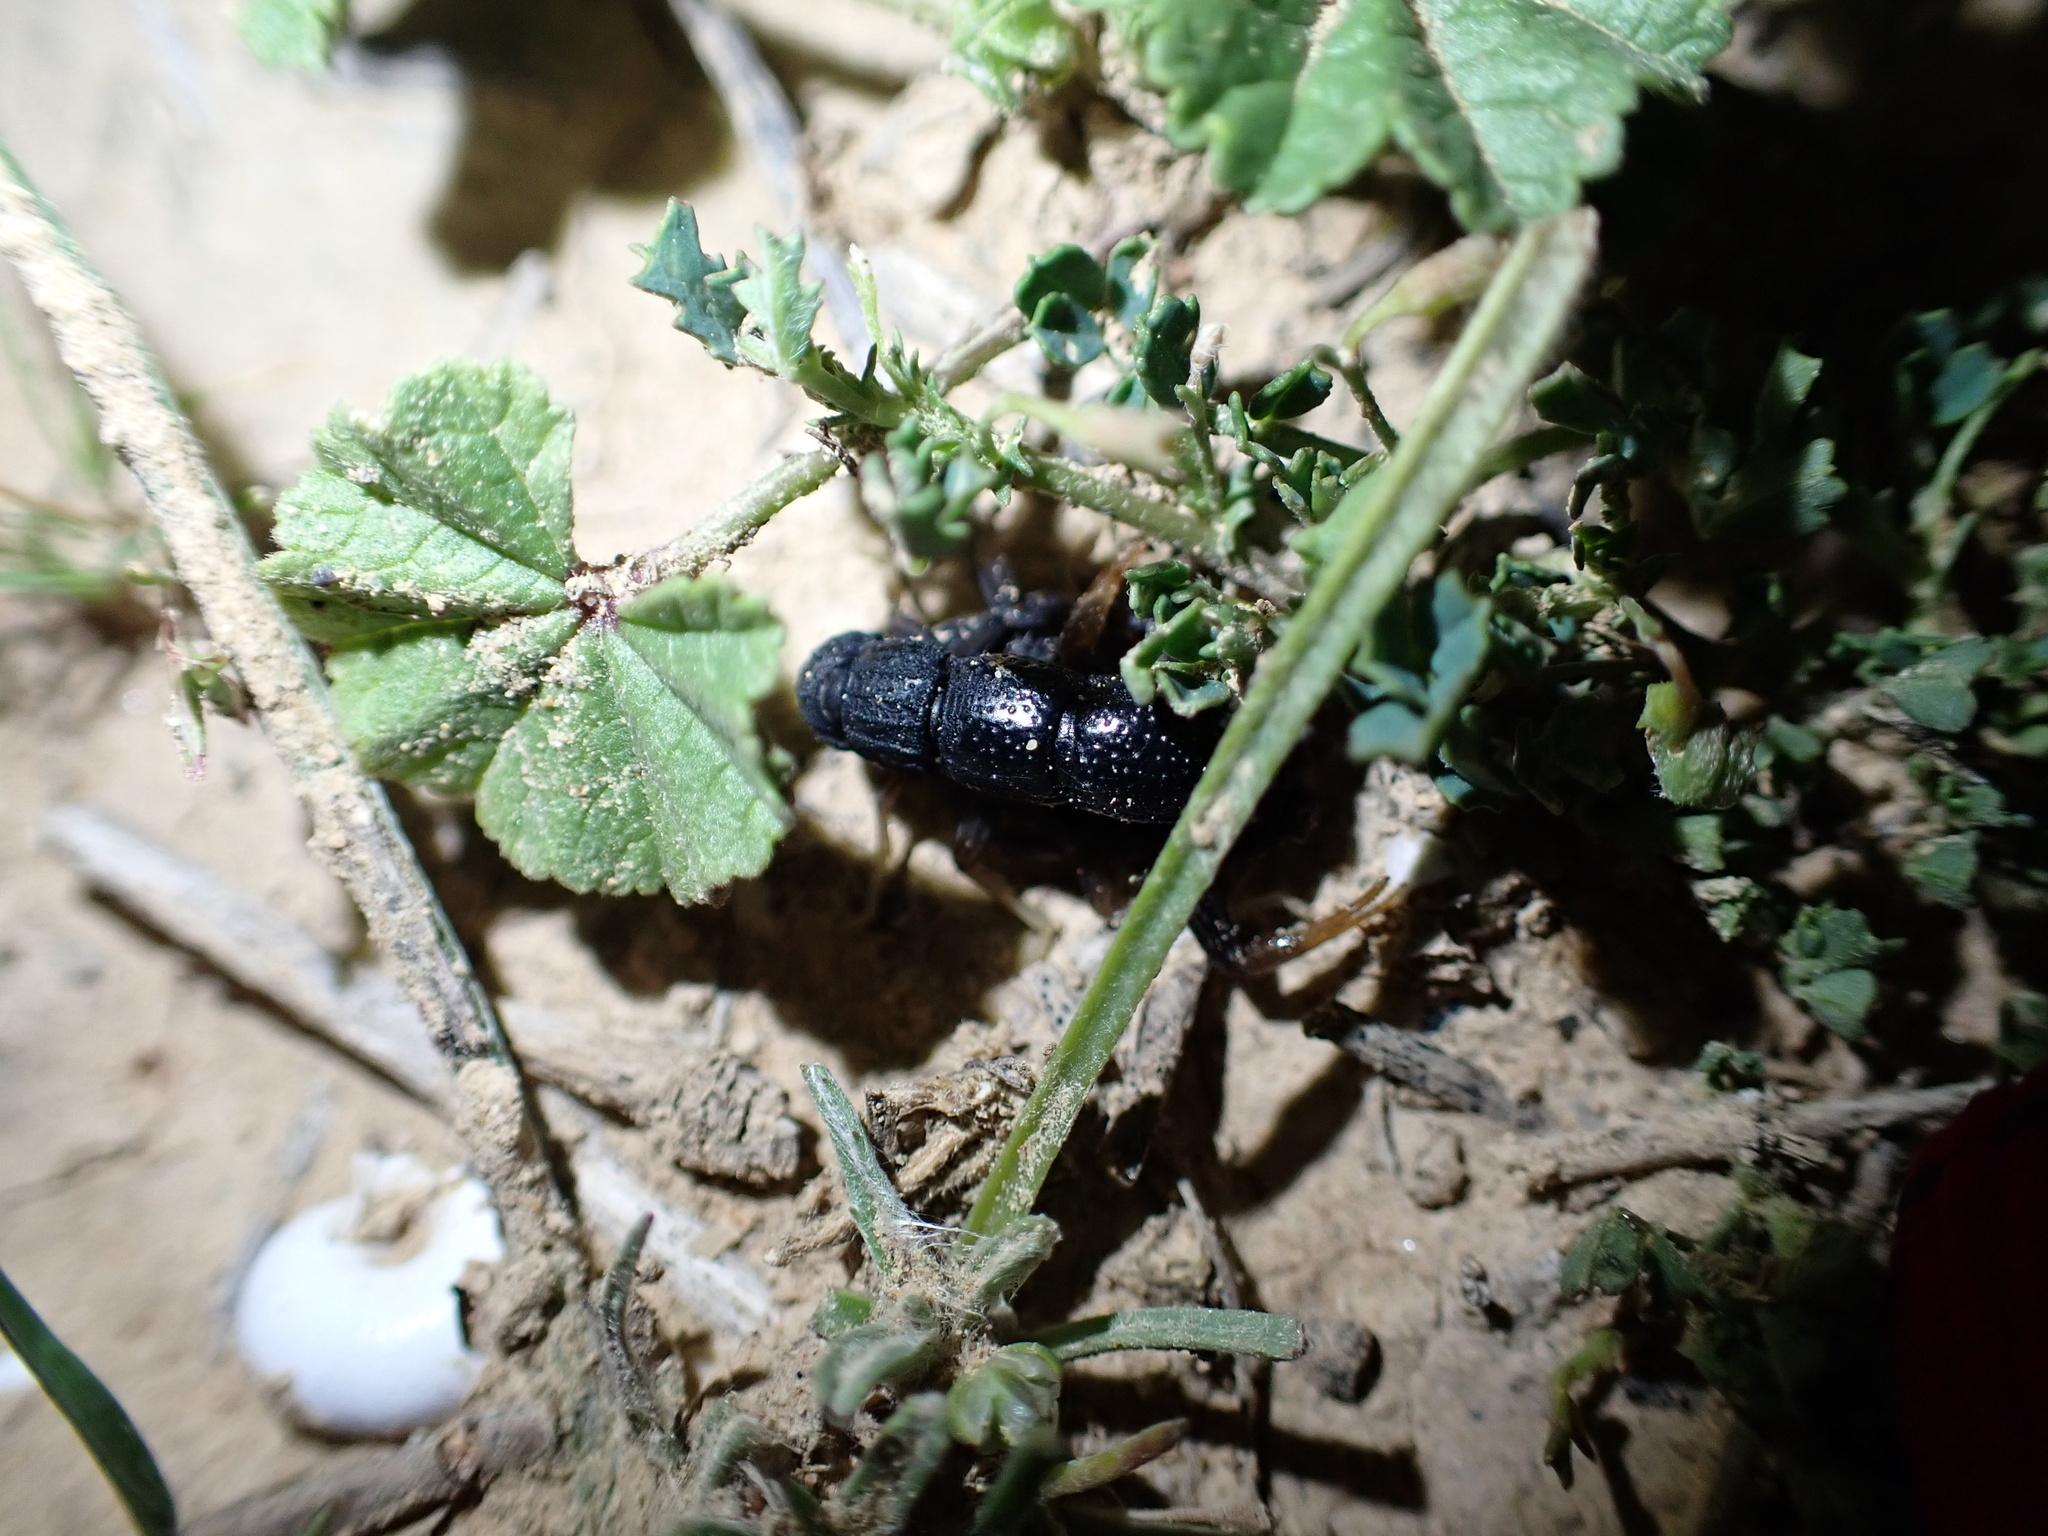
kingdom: Animalia
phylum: Arthropoda
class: Arachnida
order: Scorpiones
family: Buthidae
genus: Orthochirus
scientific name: Orthochirus mesopotamicus
